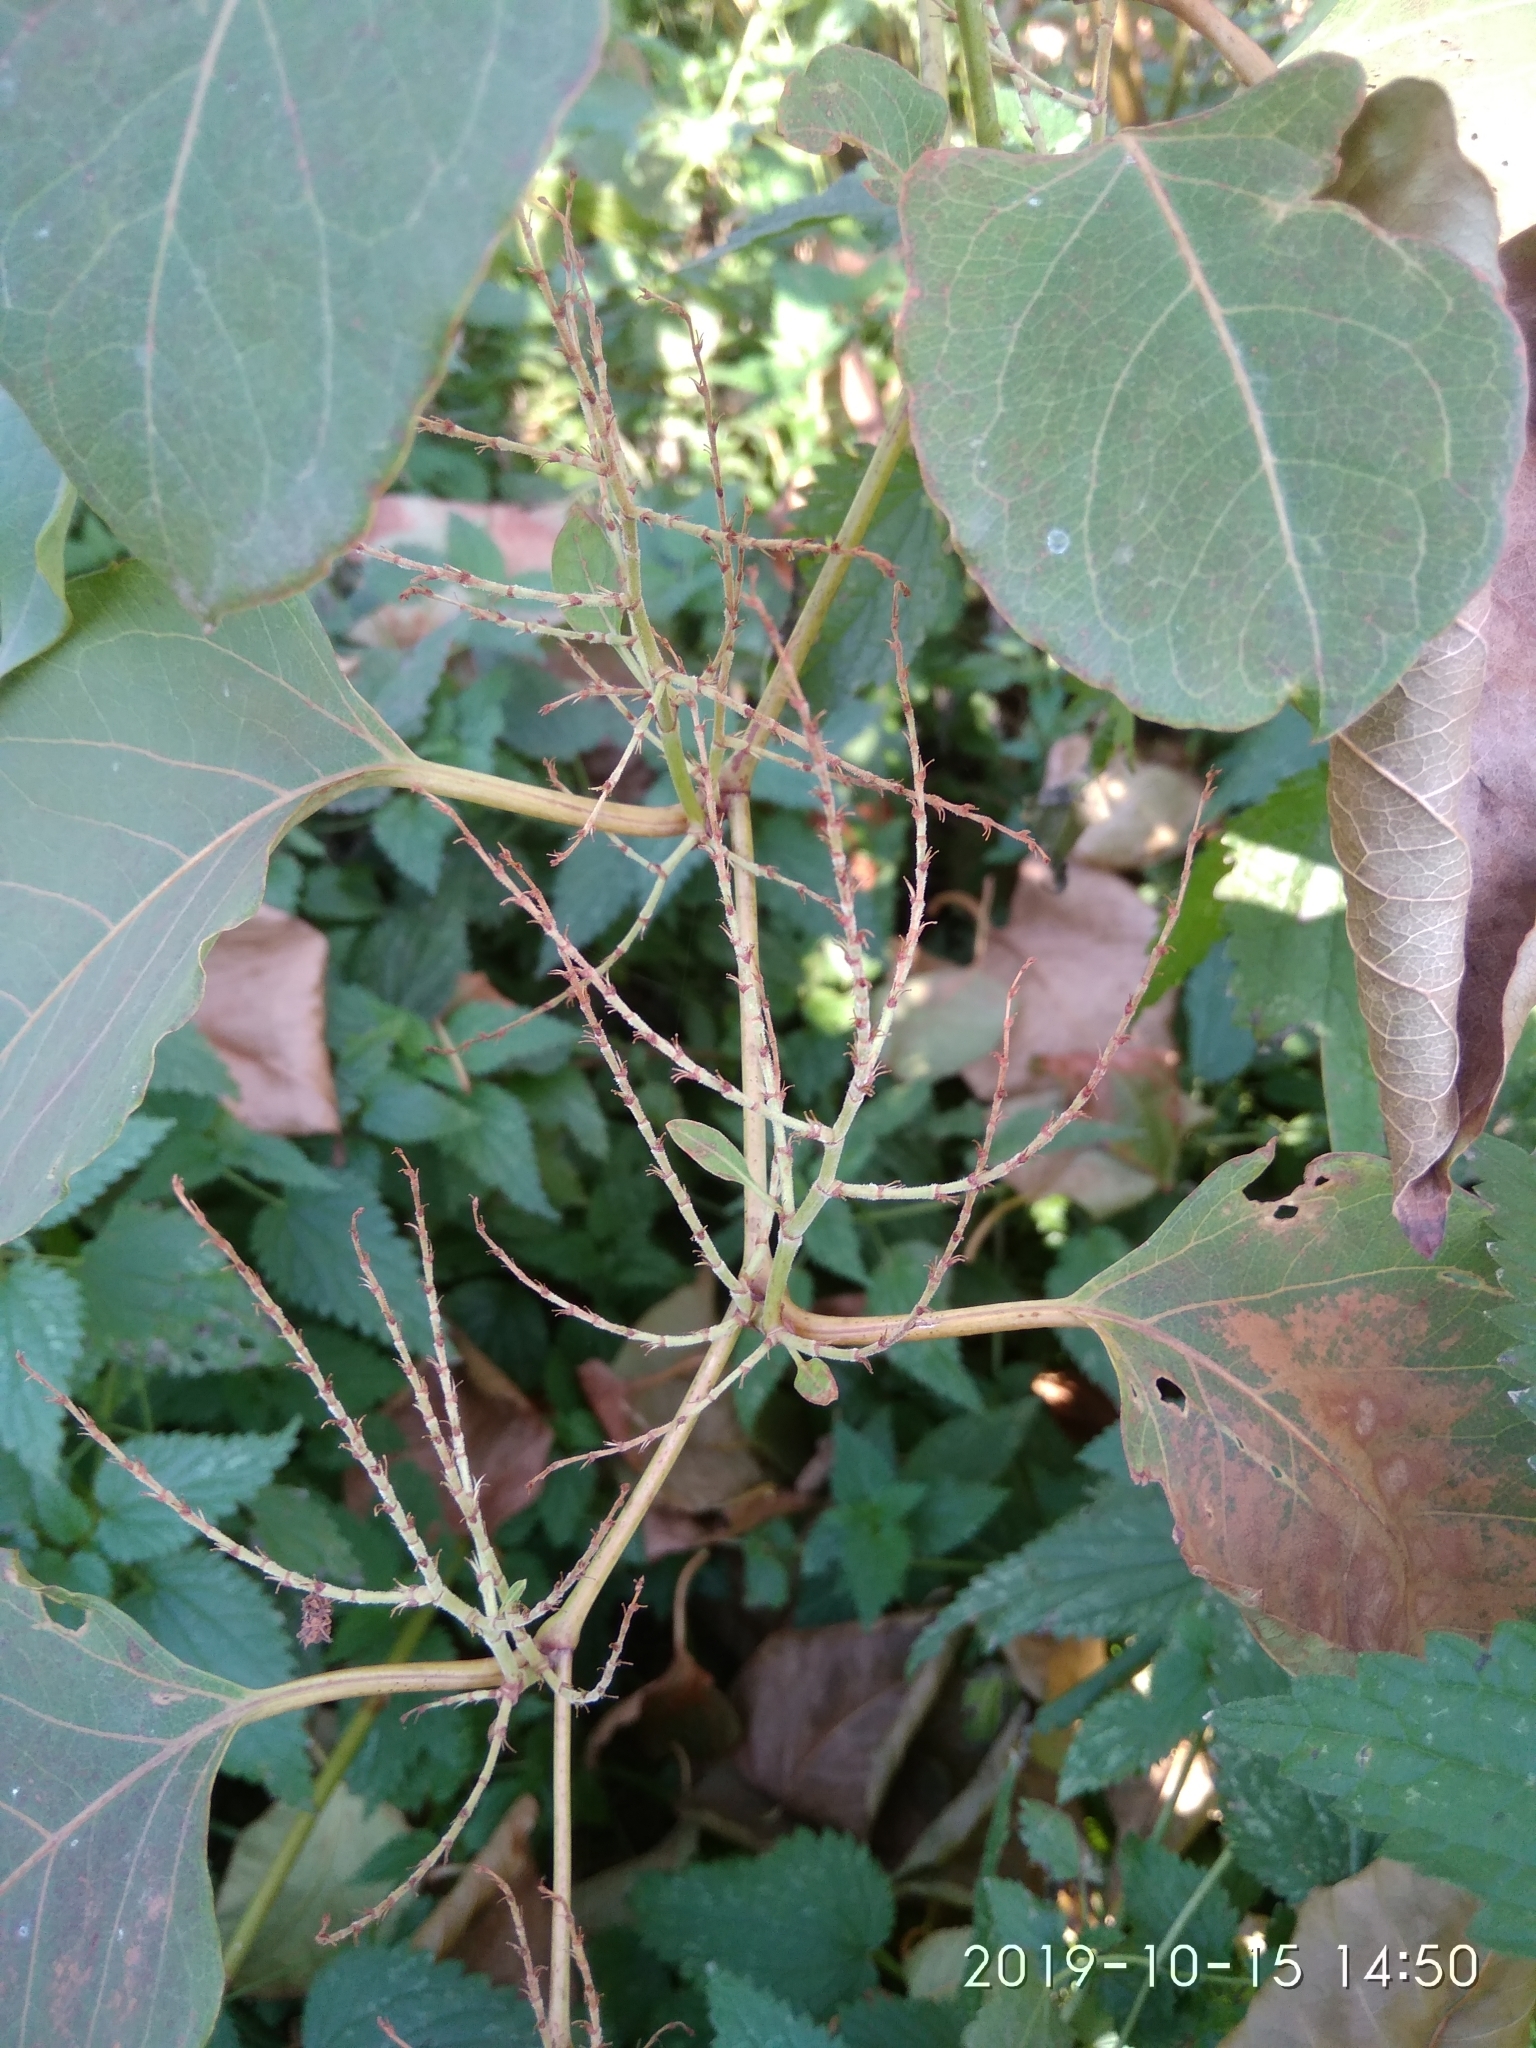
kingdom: Plantae
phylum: Tracheophyta
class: Magnoliopsida
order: Caryophyllales
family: Polygonaceae
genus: Reynoutria
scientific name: Reynoutria japonica
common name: Japanese knotweed
